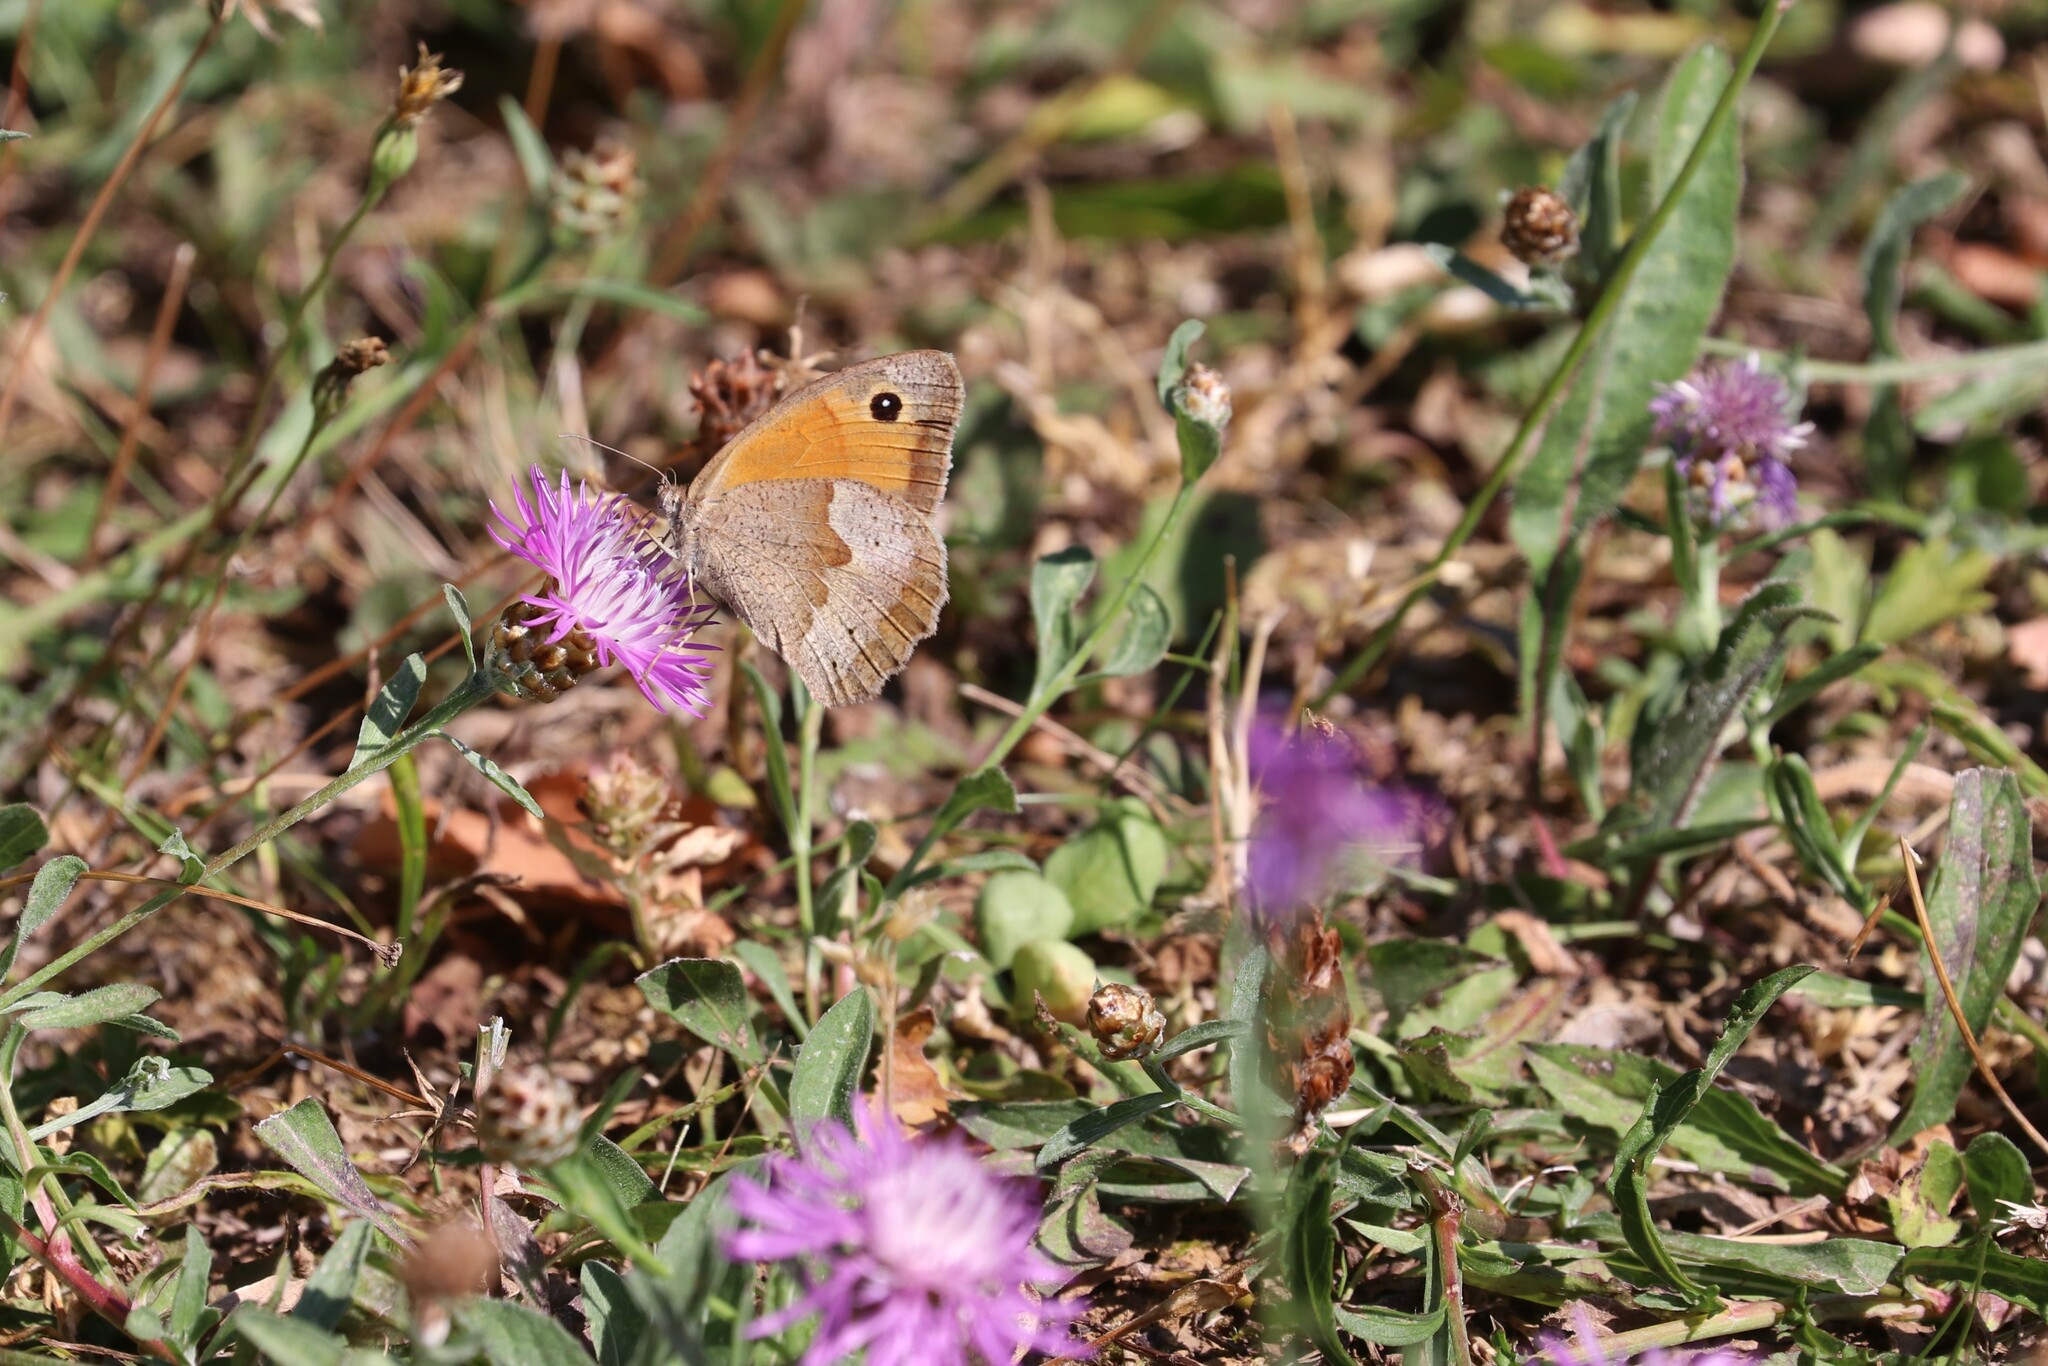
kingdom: Animalia
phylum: Arthropoda
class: Insecta
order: Lepidoptera
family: Nymphalidae
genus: Maniola
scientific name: Maniola jurtina
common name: Meadow brown
